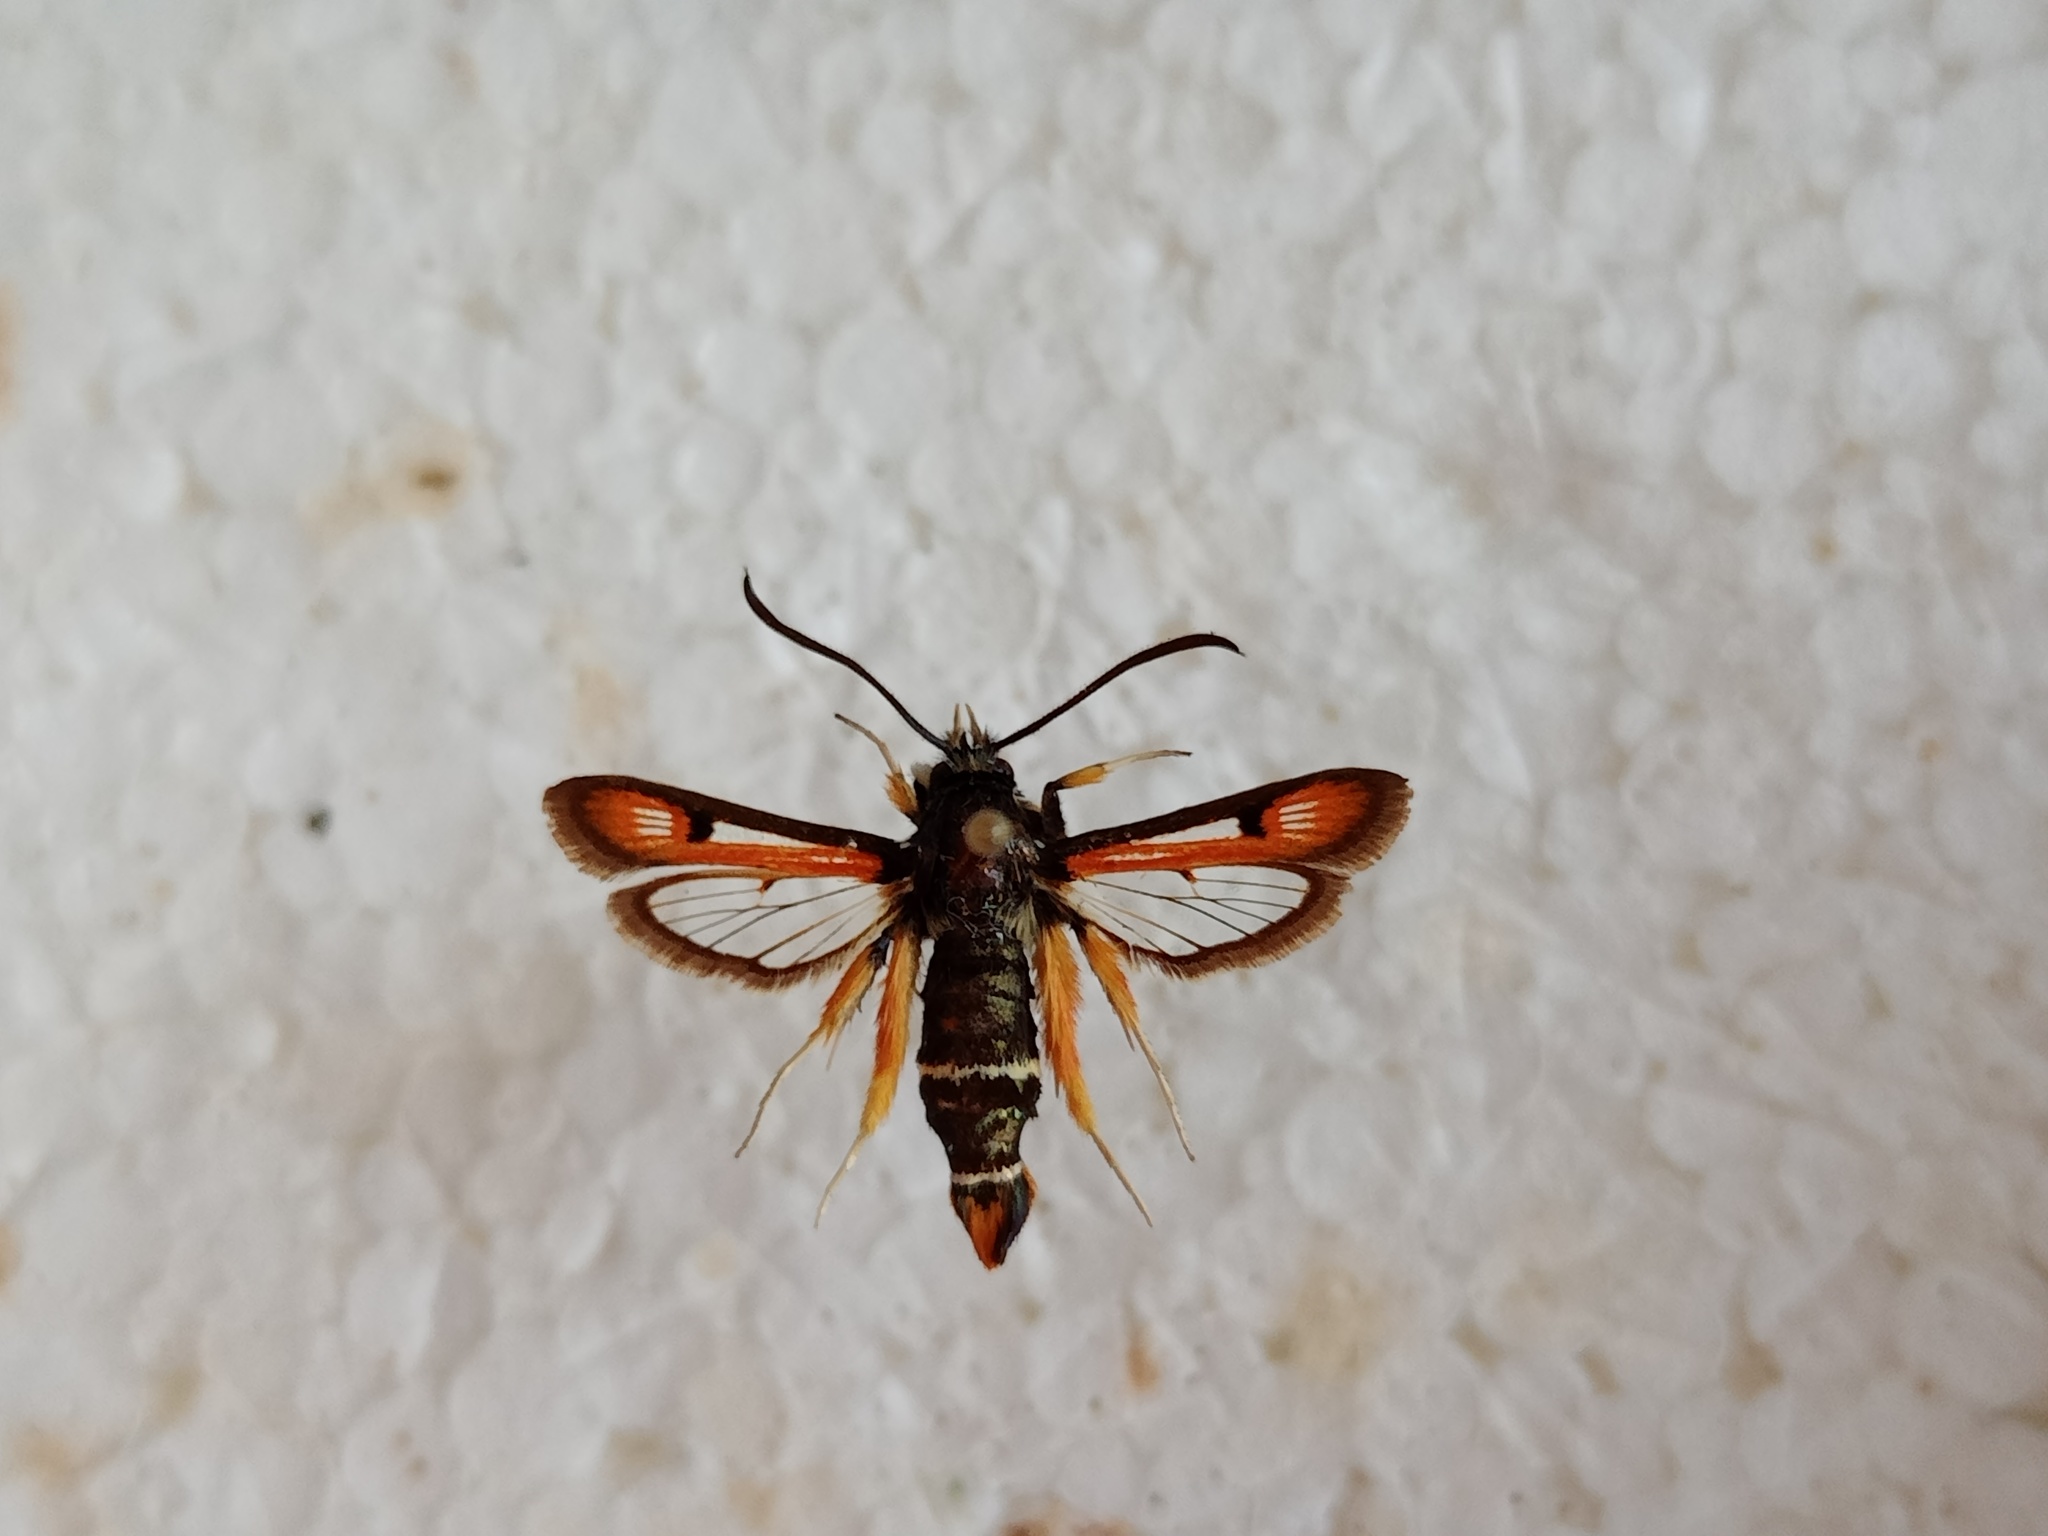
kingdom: Animalia
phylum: Arthropoda
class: Insecta
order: Lepidoptera
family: Sesiidae
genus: Pyropteron
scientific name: Pyropteron chrysidiforme
